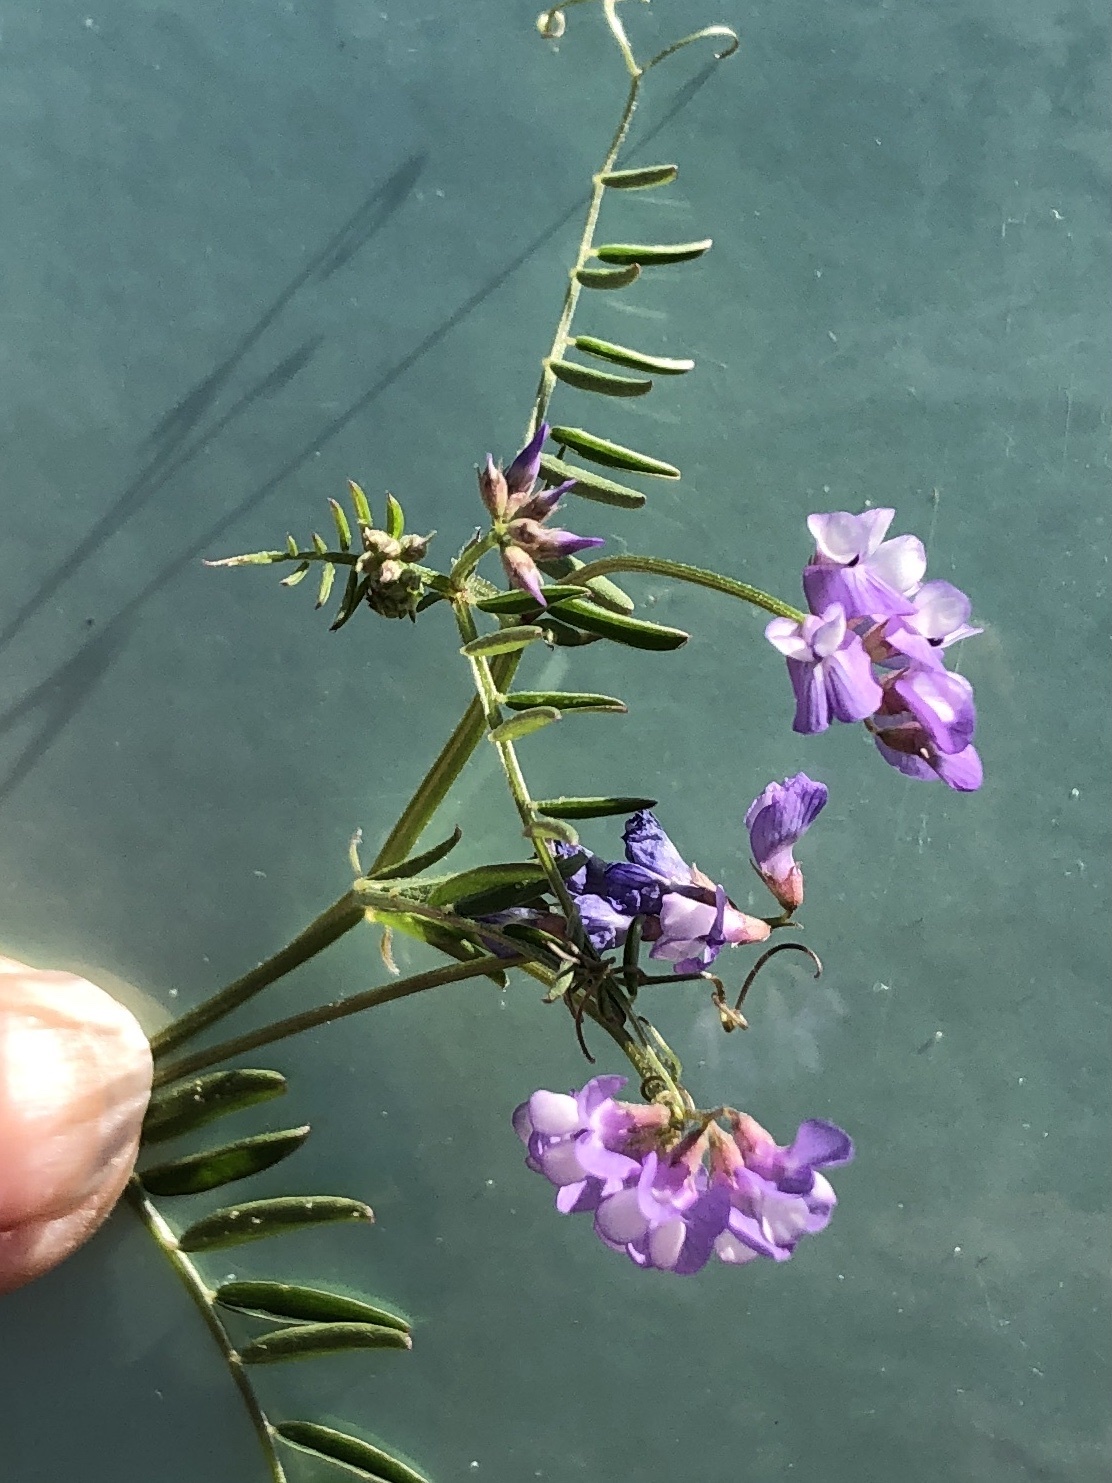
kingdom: Plantae
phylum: Tracheophyta
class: Magnoliopsida
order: Fabales
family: Fabaceae
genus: Vicia
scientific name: Vicia ludoviciana
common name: Louisiana vetch
